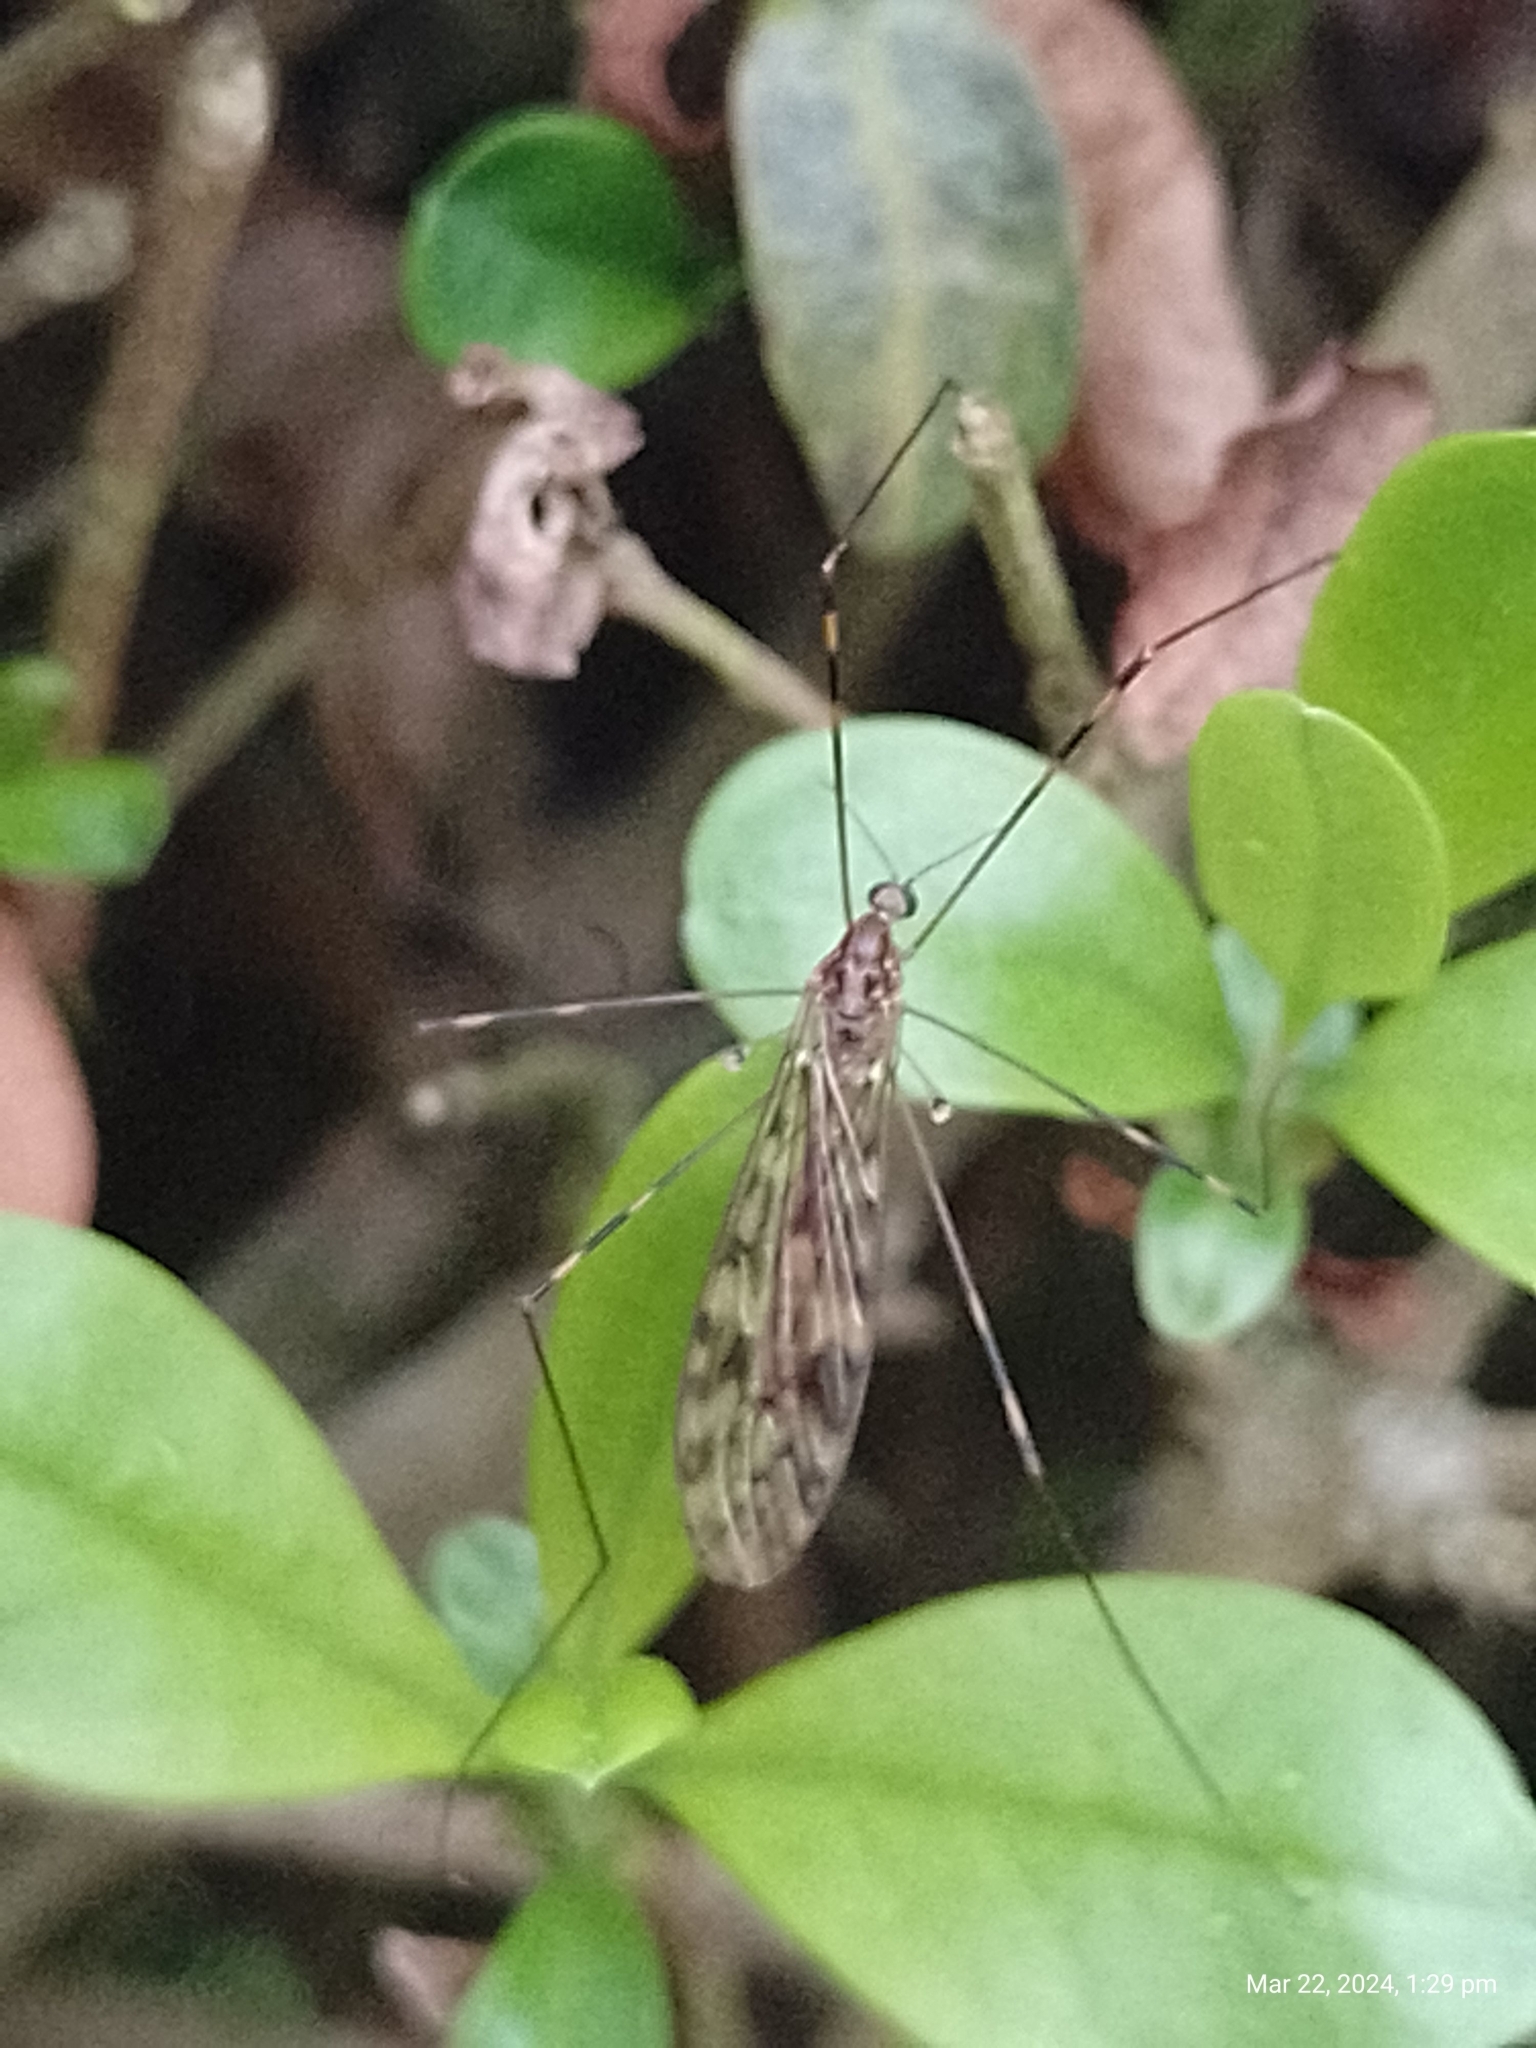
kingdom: Animalia
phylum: Arthropoda
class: Insecta
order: Diptera
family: Limoniidae
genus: Limonia
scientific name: Limonia nubeculosa
